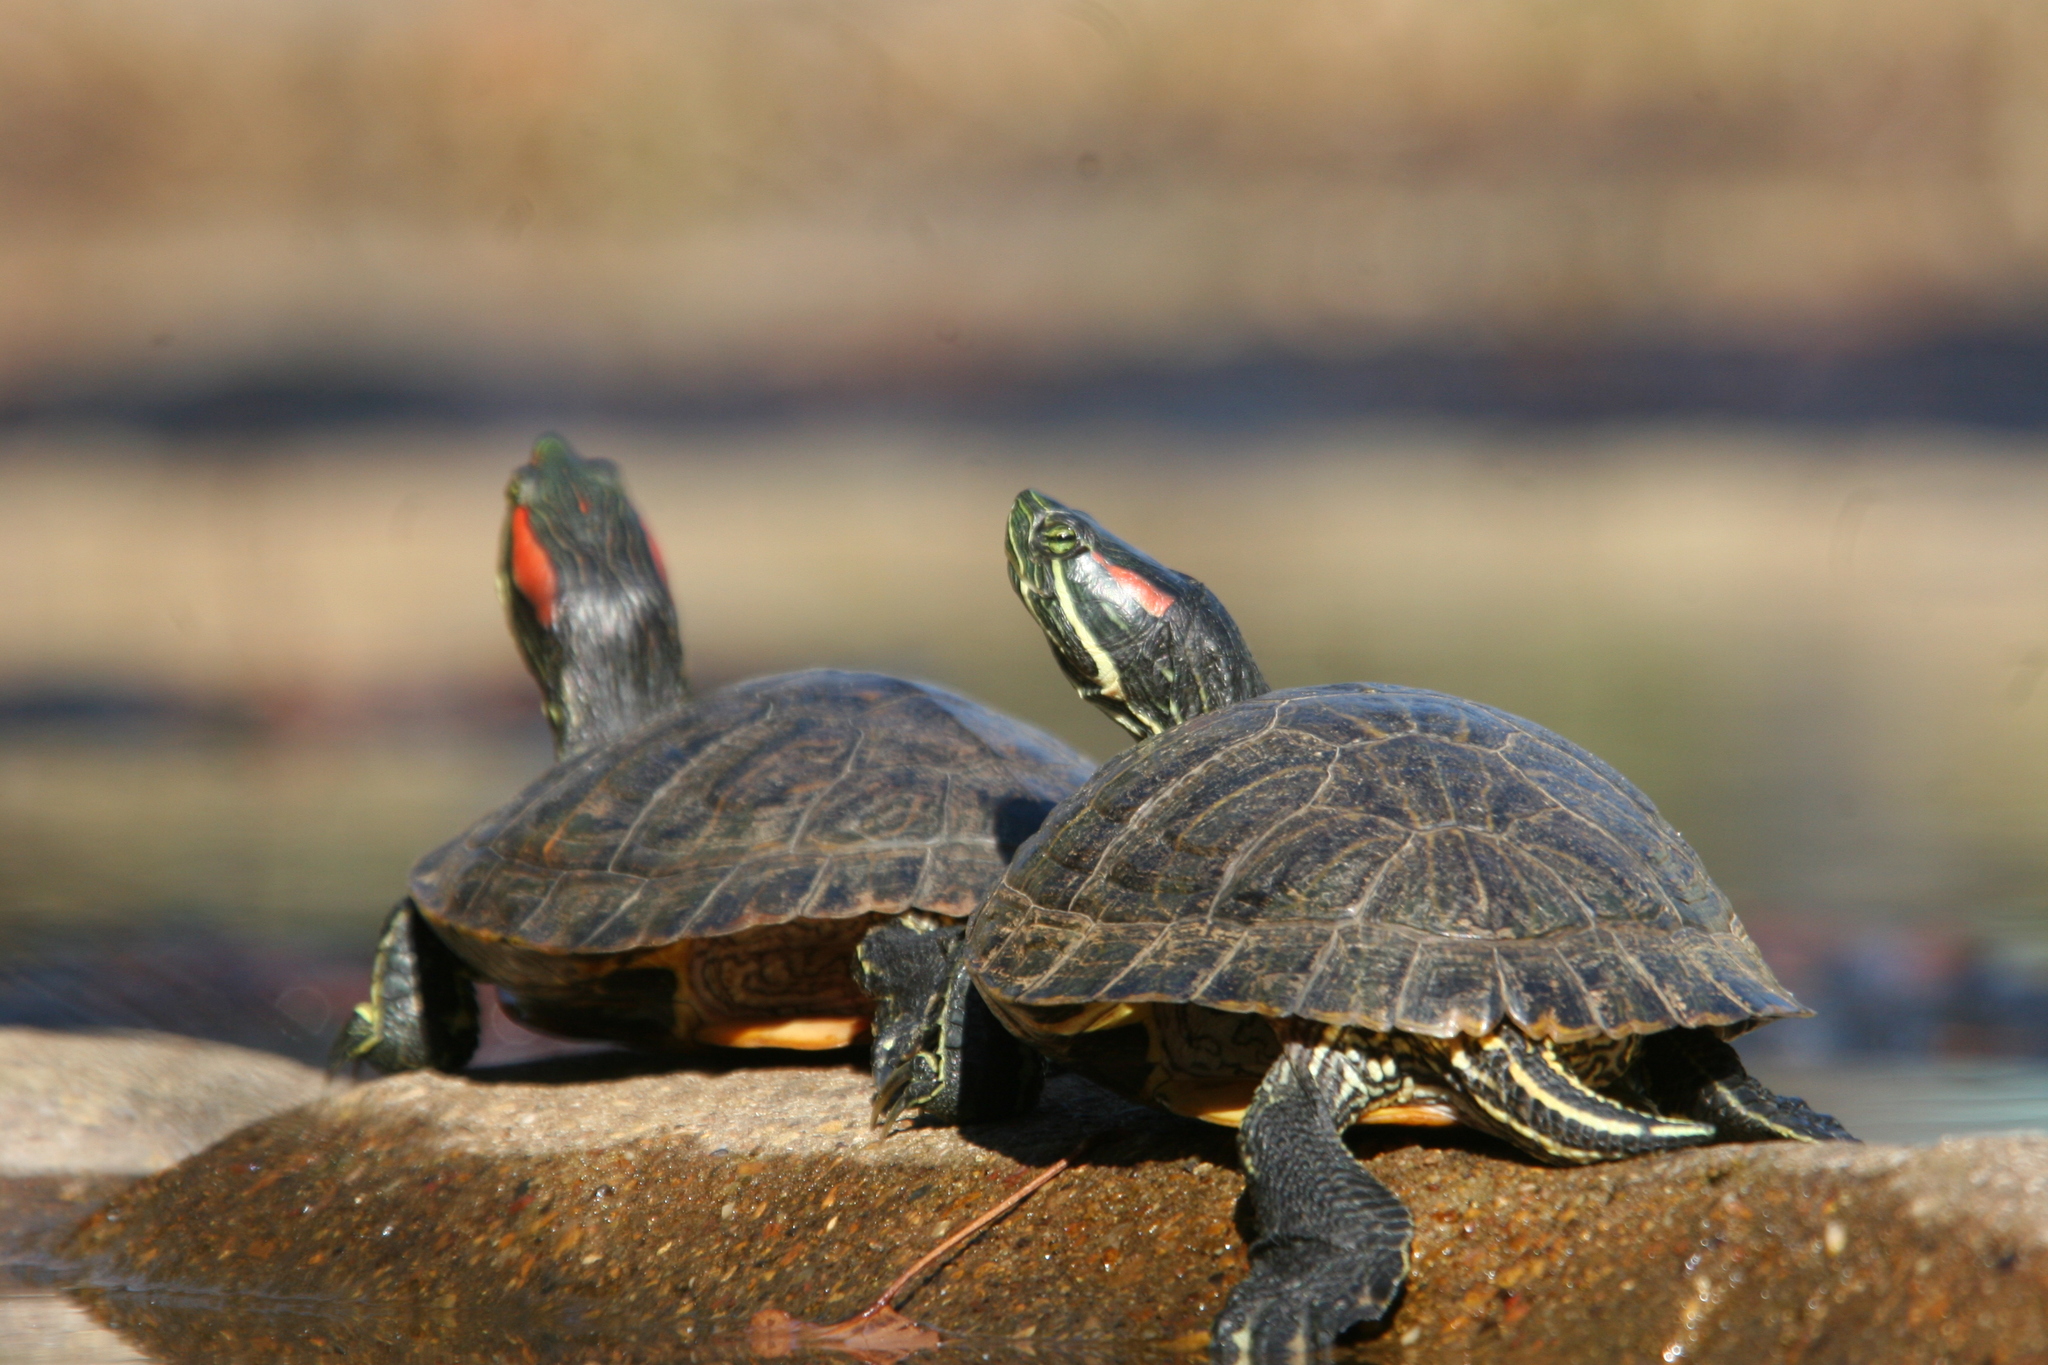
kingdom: Animalia
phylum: Chordata
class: Testudines
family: Emydidae
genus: Trachemys
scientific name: Trachemys scripta
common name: Slider
